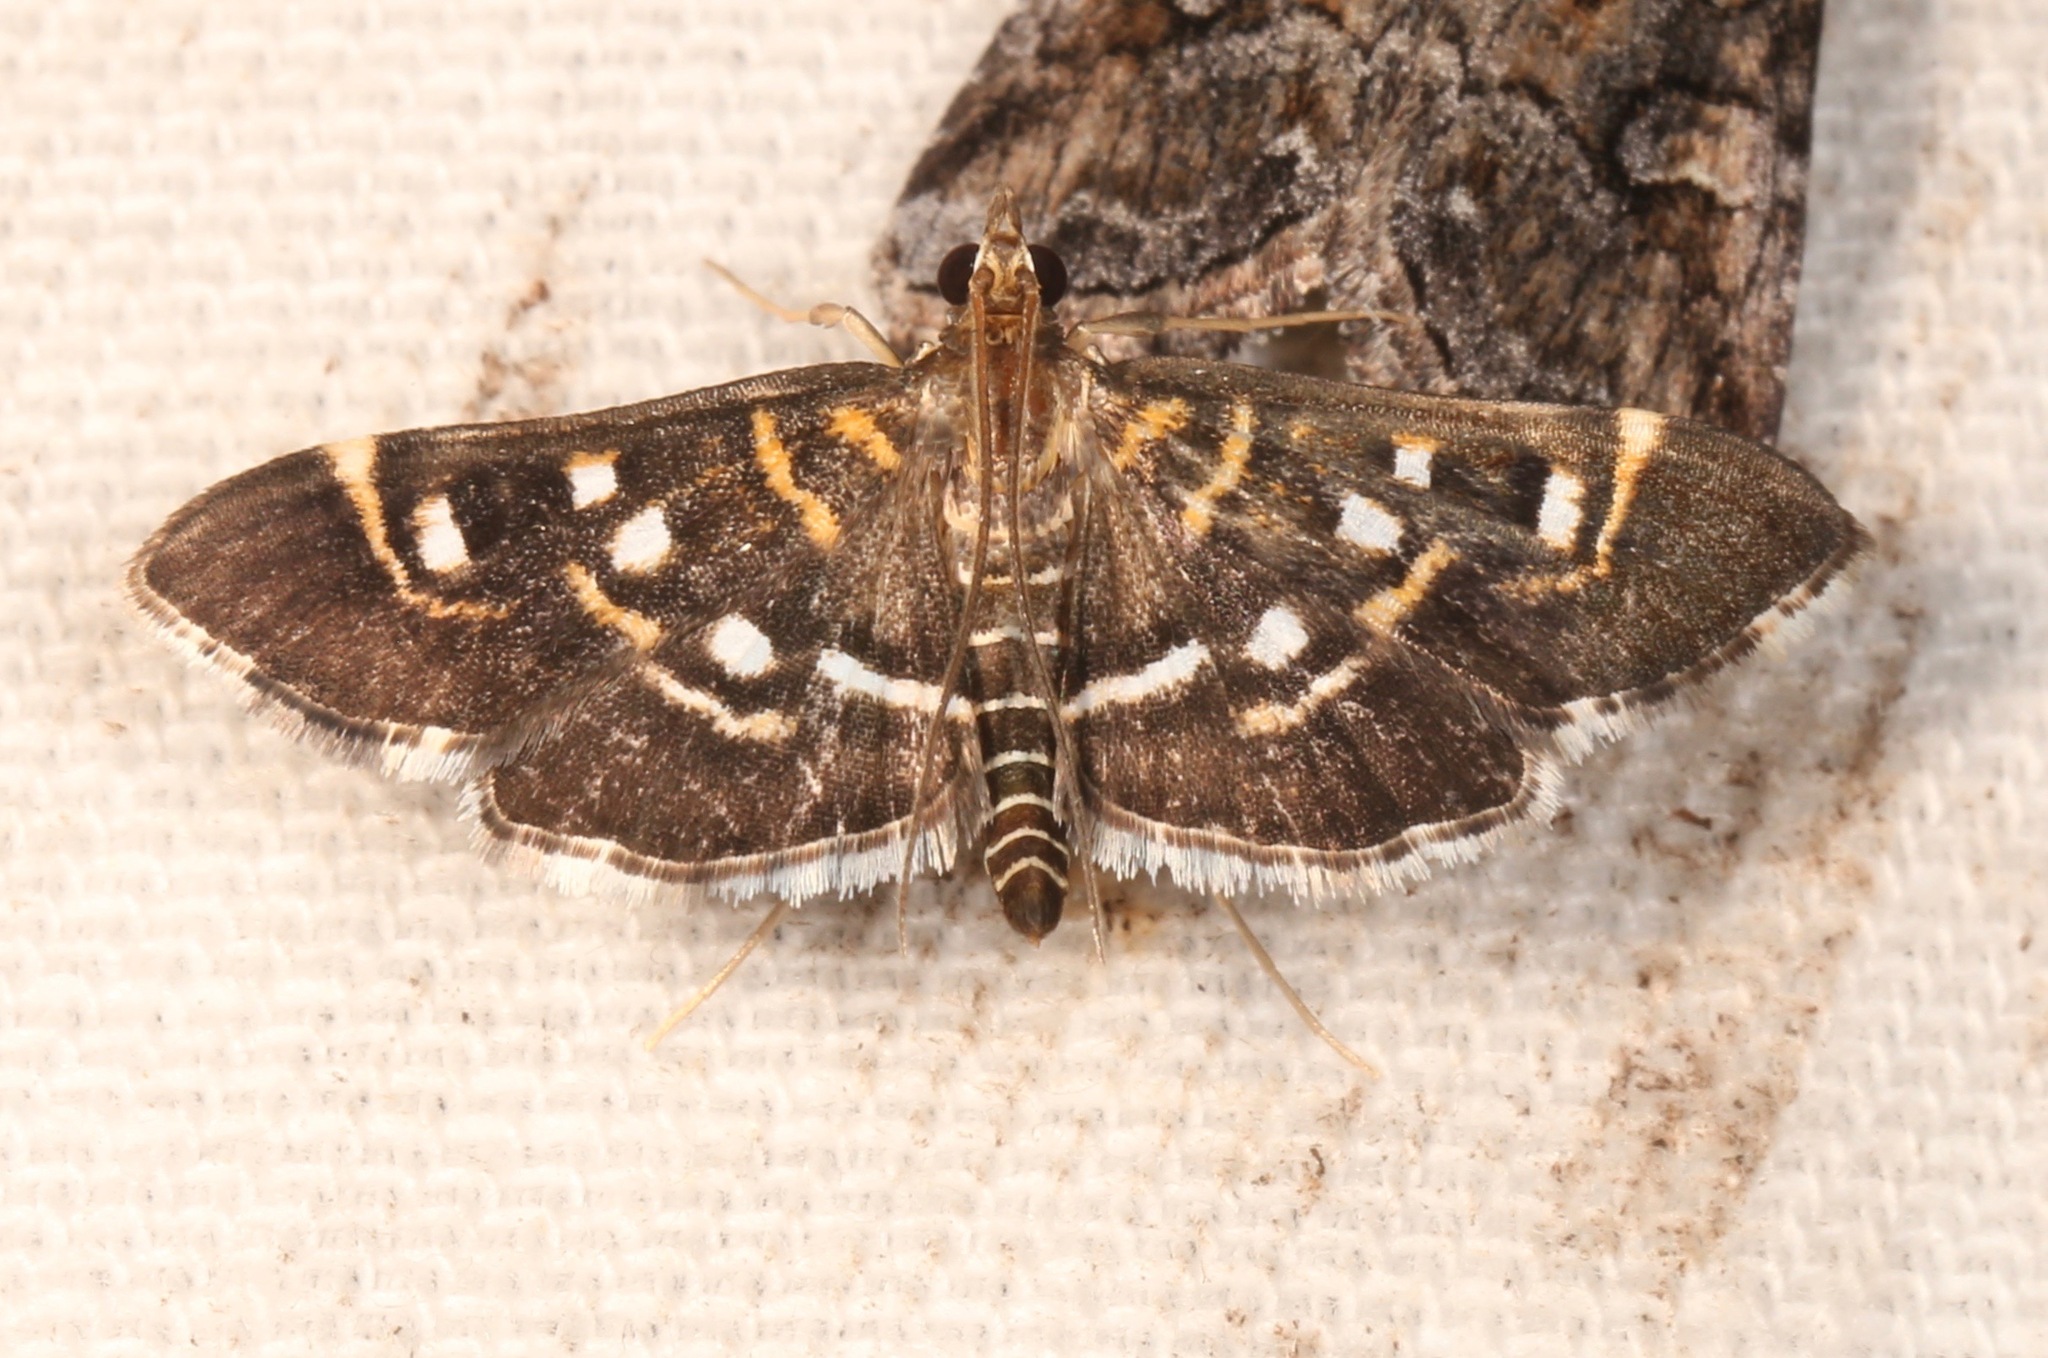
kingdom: Animalia
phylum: Arthropoda
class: Insecta
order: Lepidoptera
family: Crambidae
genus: Diathrausta
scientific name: Diathrausta harlequinalis
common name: Harlequin webworm moth
